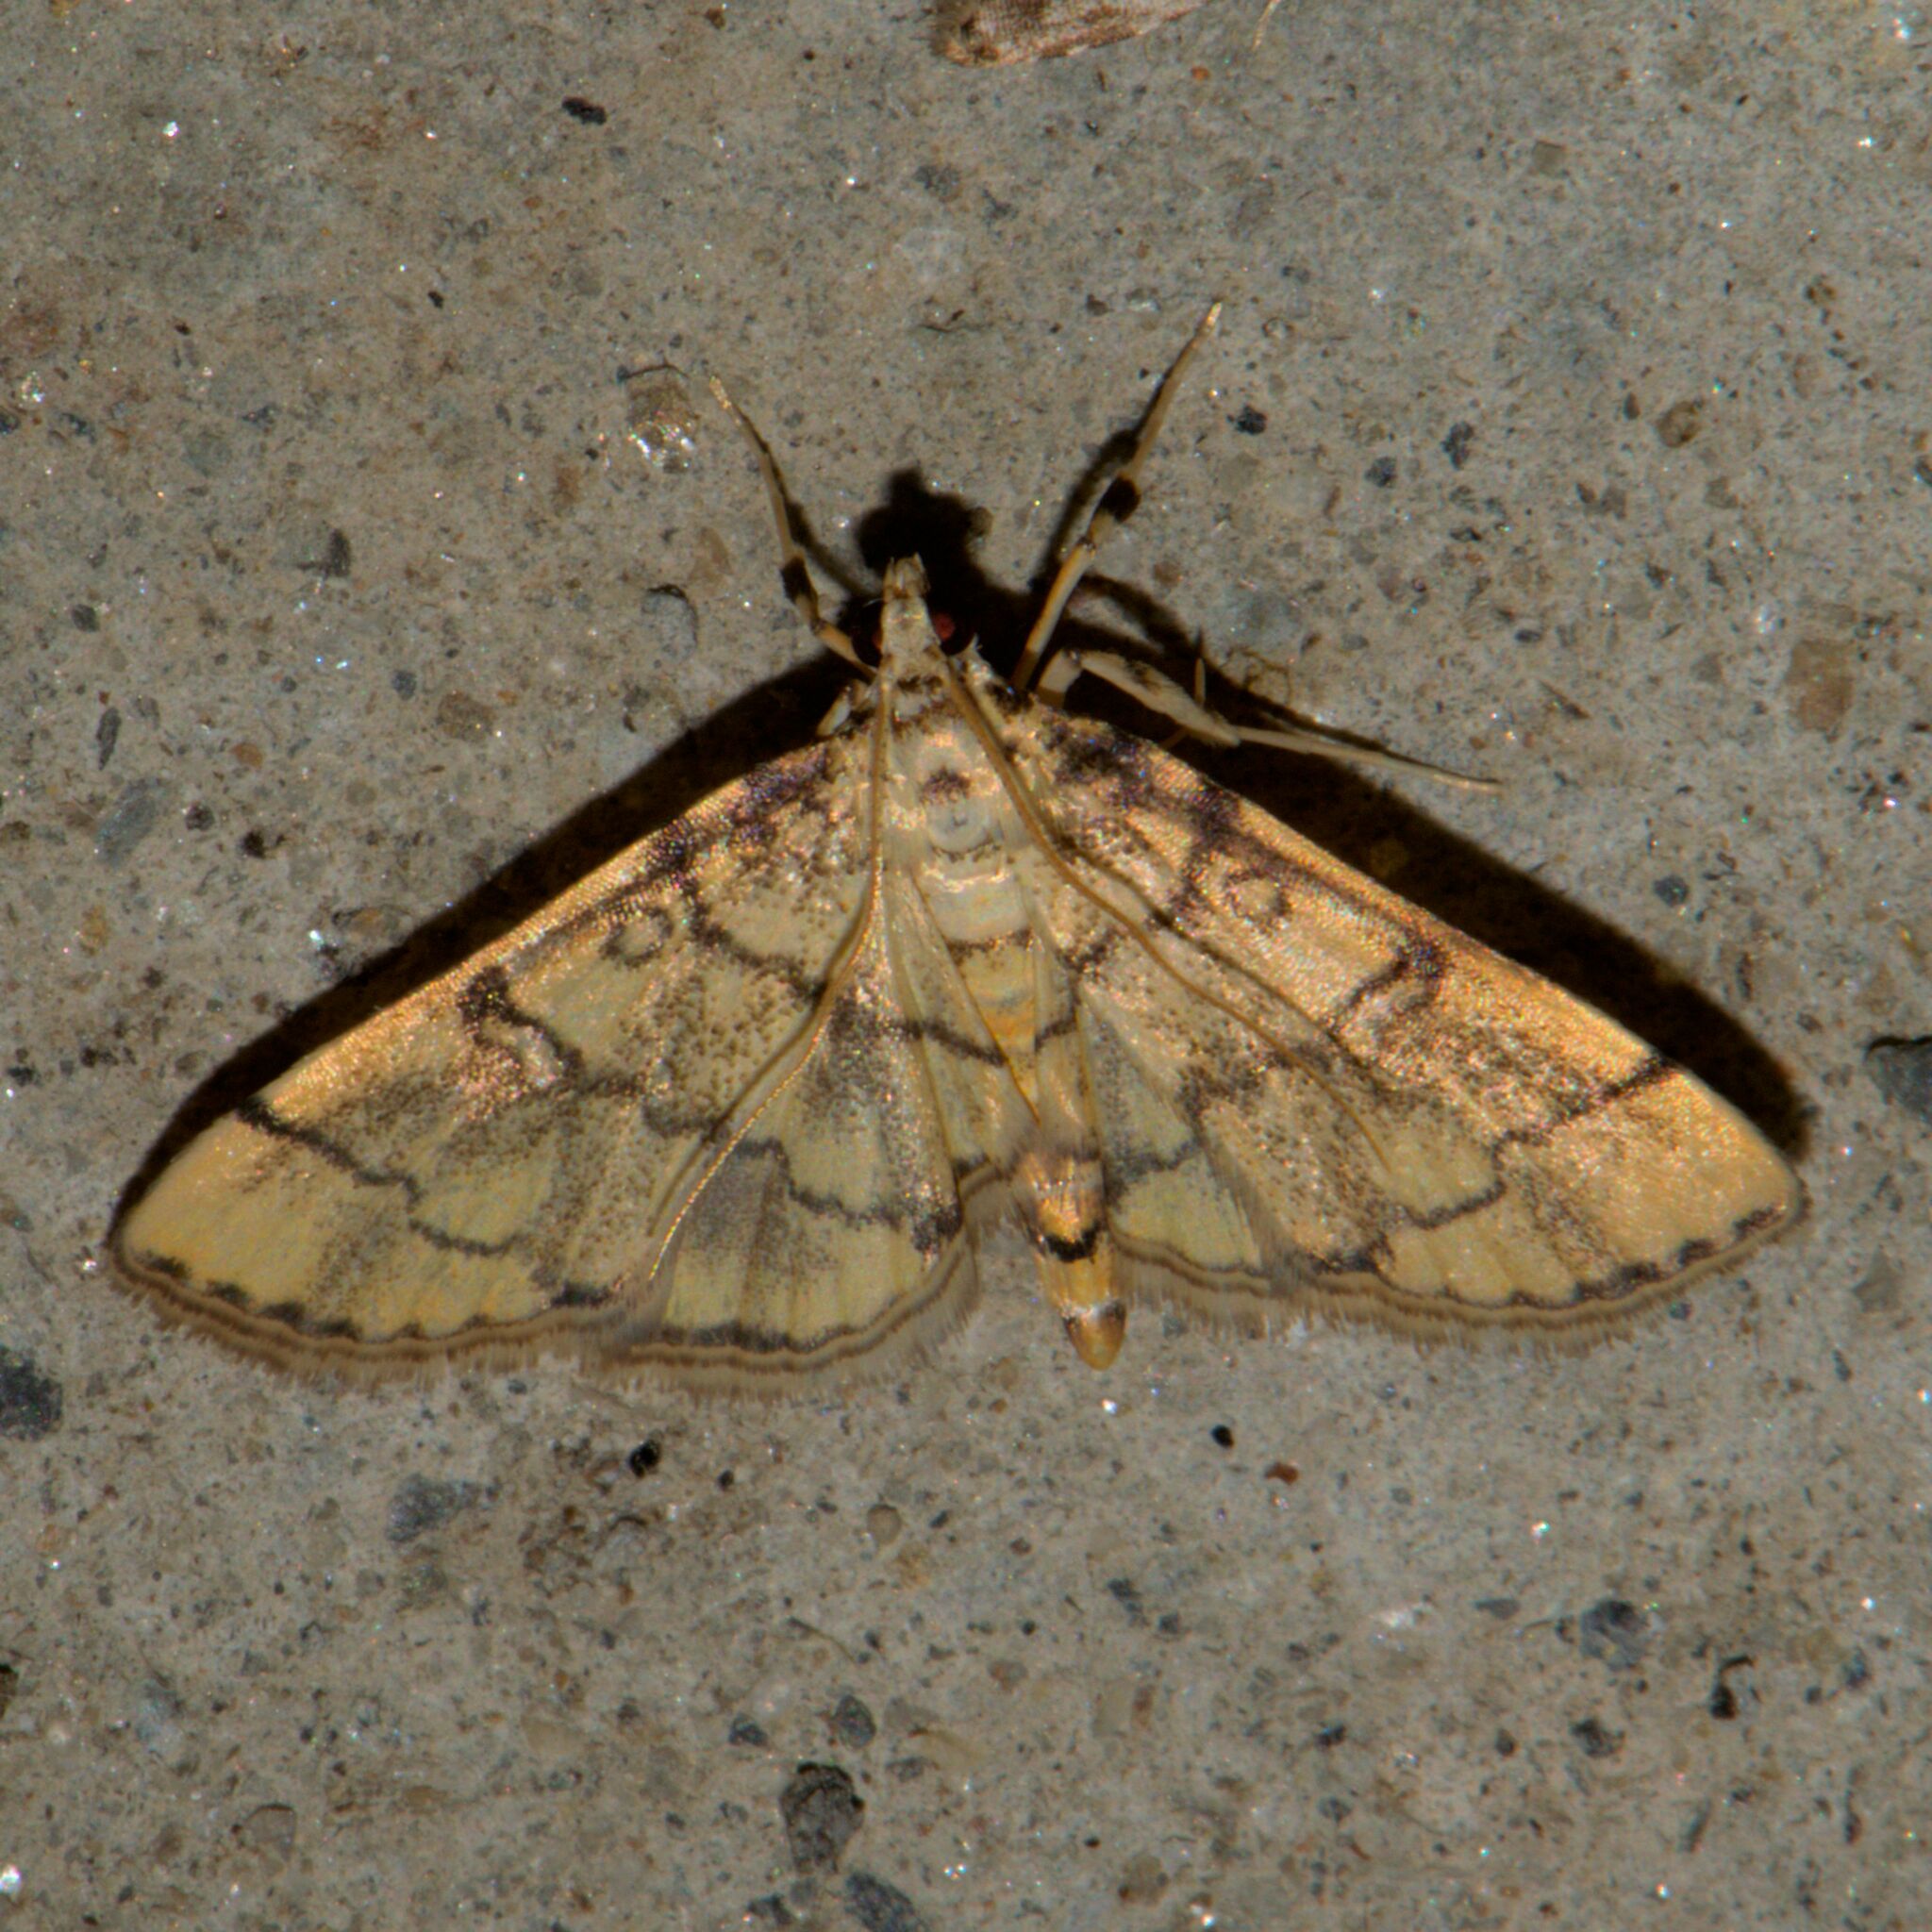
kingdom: Animalia
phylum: Arthropoda
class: Insecta
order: Lepidoptera
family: Crambidae
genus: Lamprosema
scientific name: Lamprosema tampiusalis
